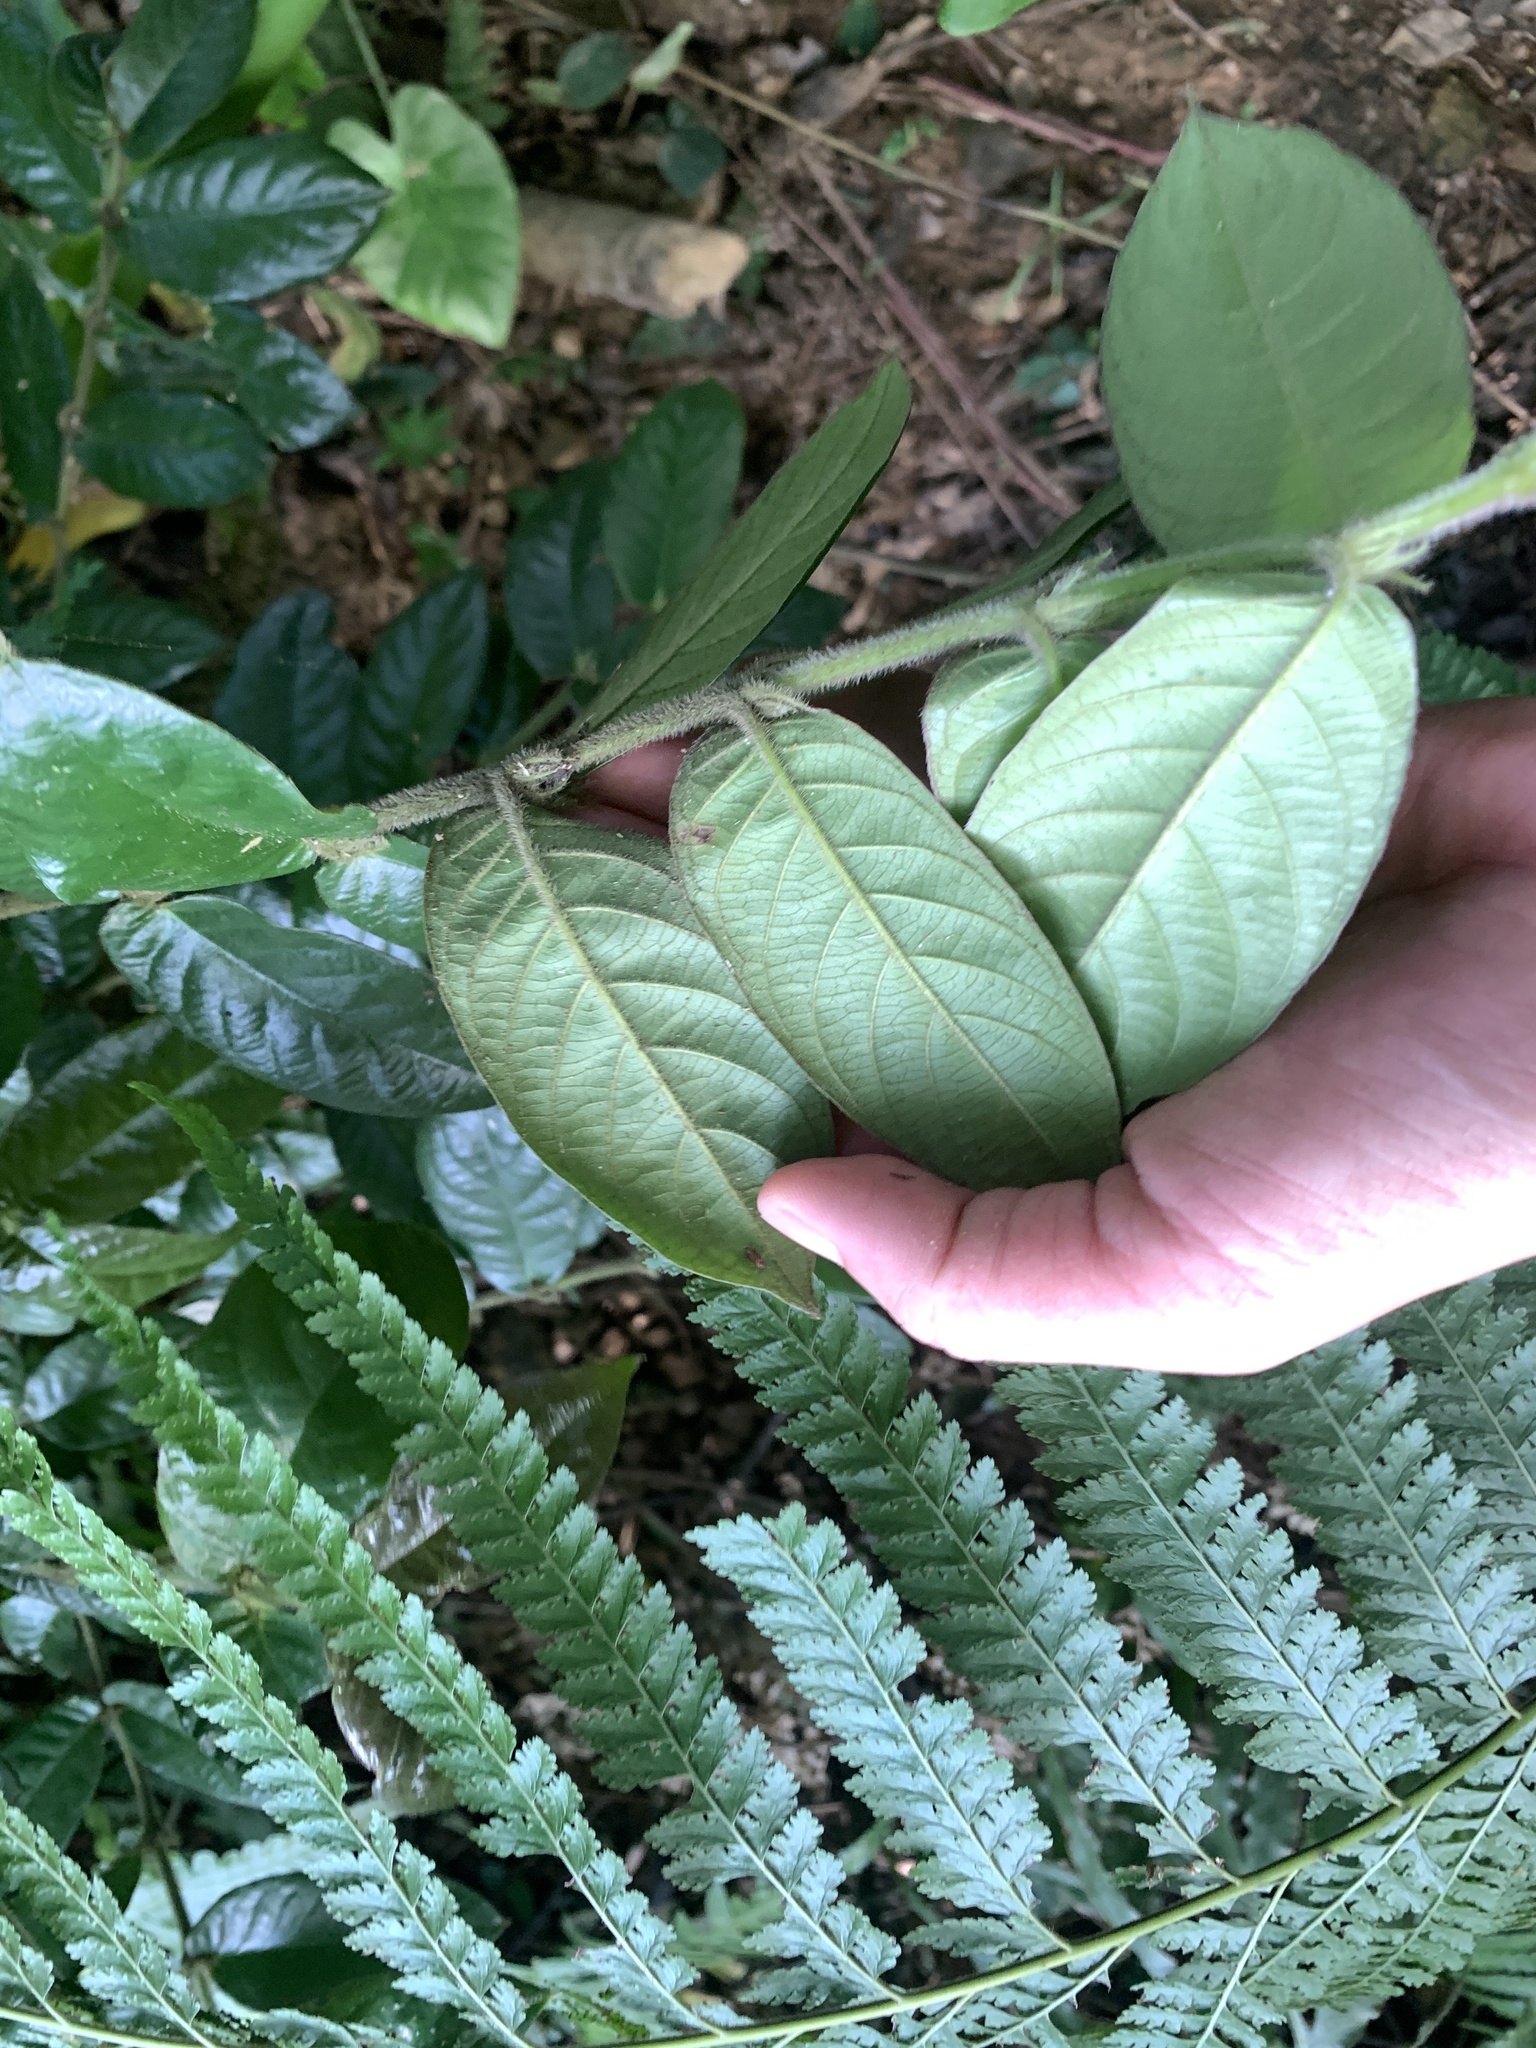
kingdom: Plantae
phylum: Tracheophyta
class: Magnoliopsida
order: Gentianales
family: Rubiaceae
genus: Lasianthus
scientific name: Lasianthus attenuatus
